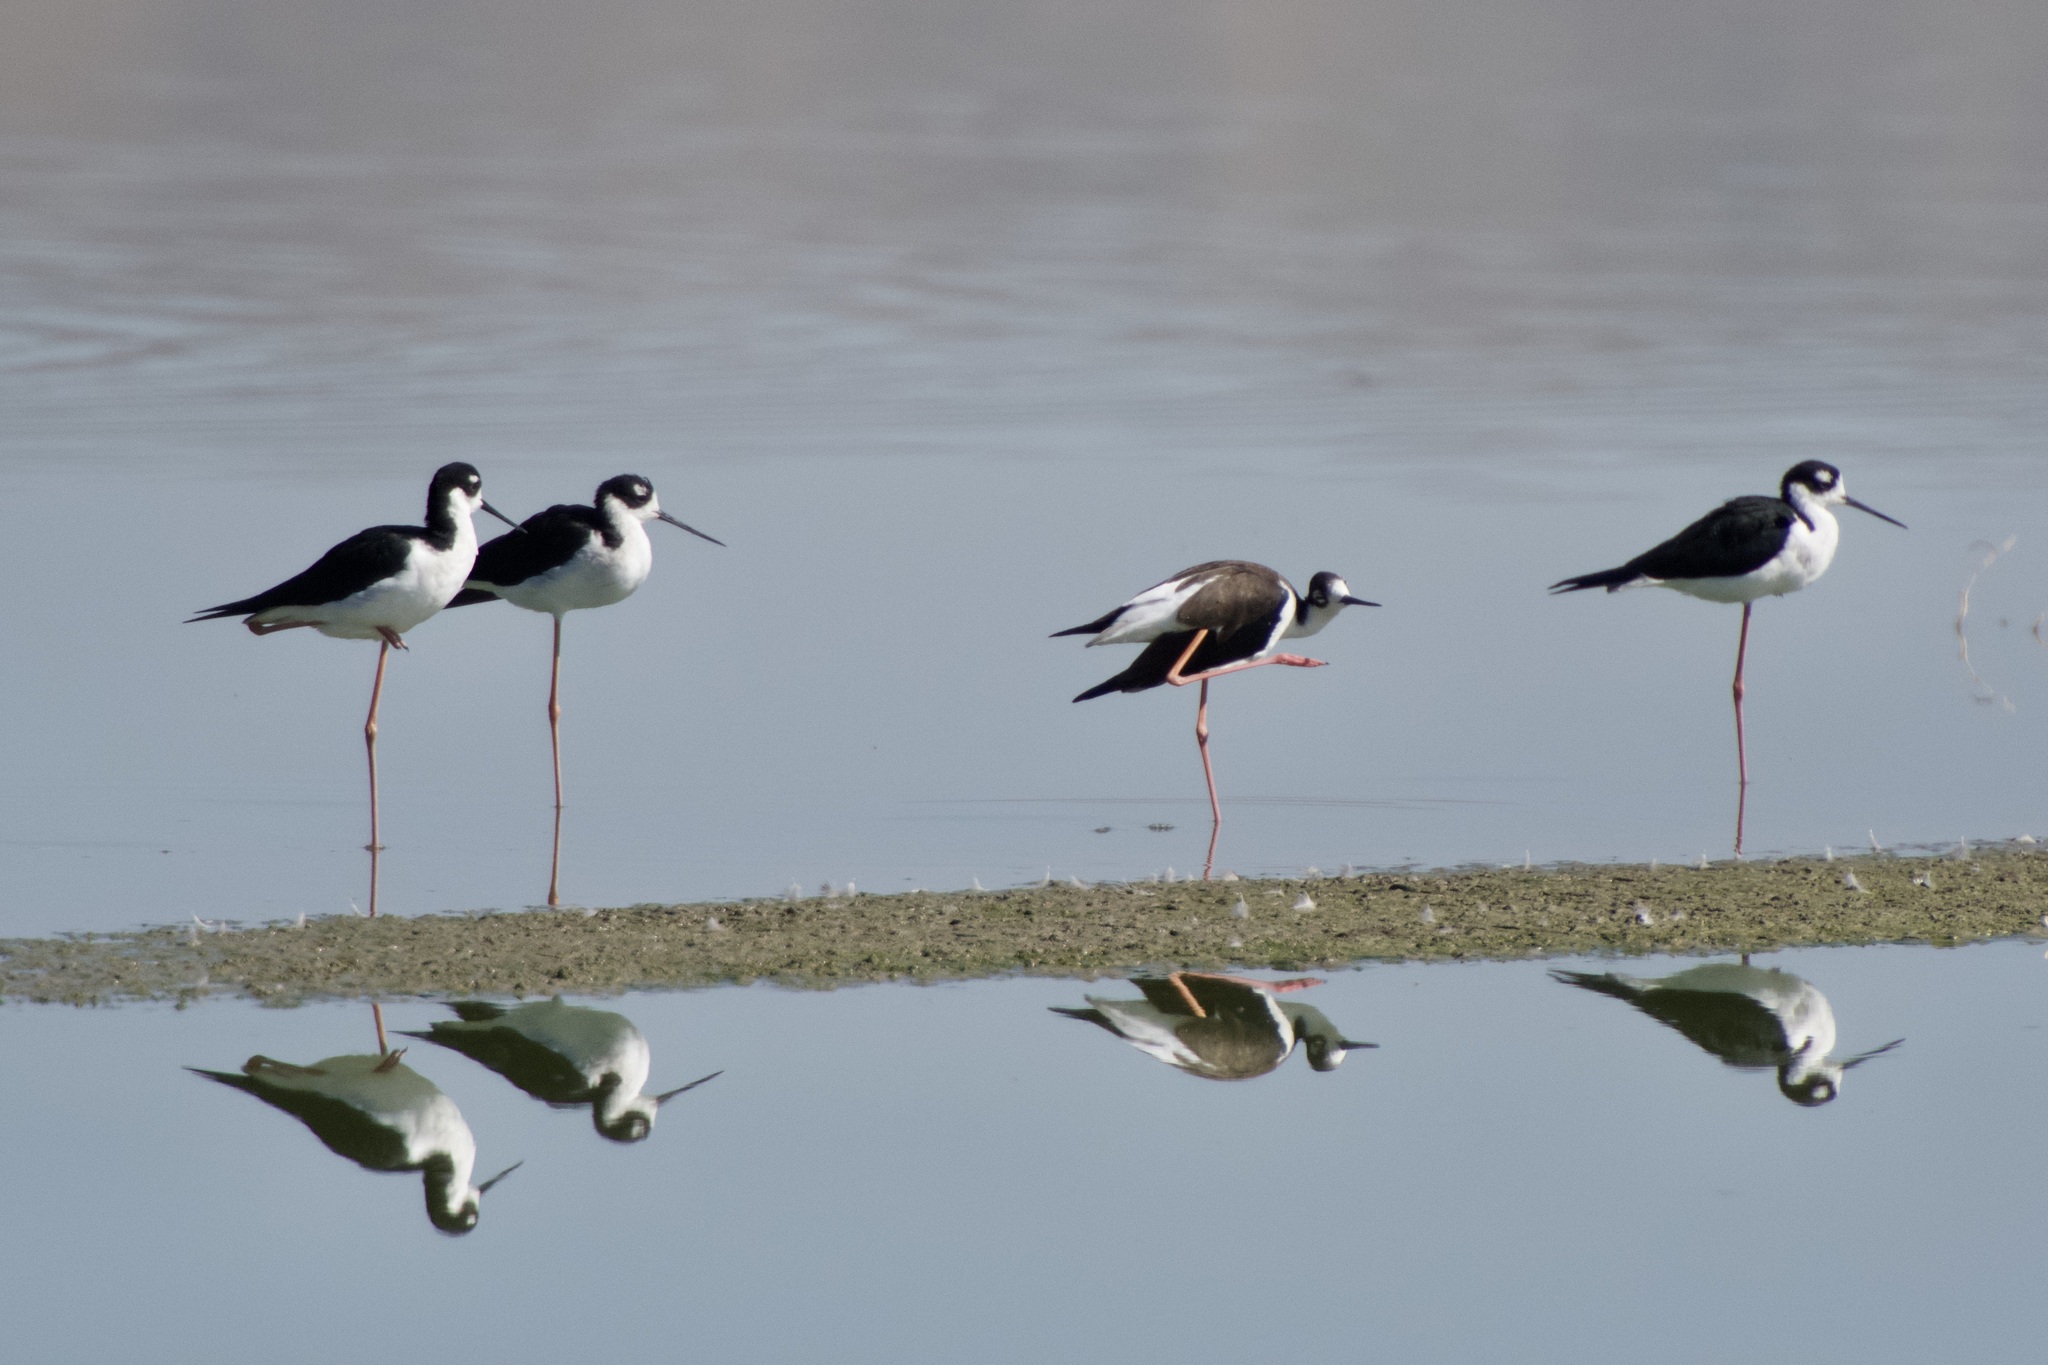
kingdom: Animalia
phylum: Chordata
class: Aves
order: Charadriiformes
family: Recurvirostridae
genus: Himantopus
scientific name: Himantopus mexicanus
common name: Black-necked stilt
